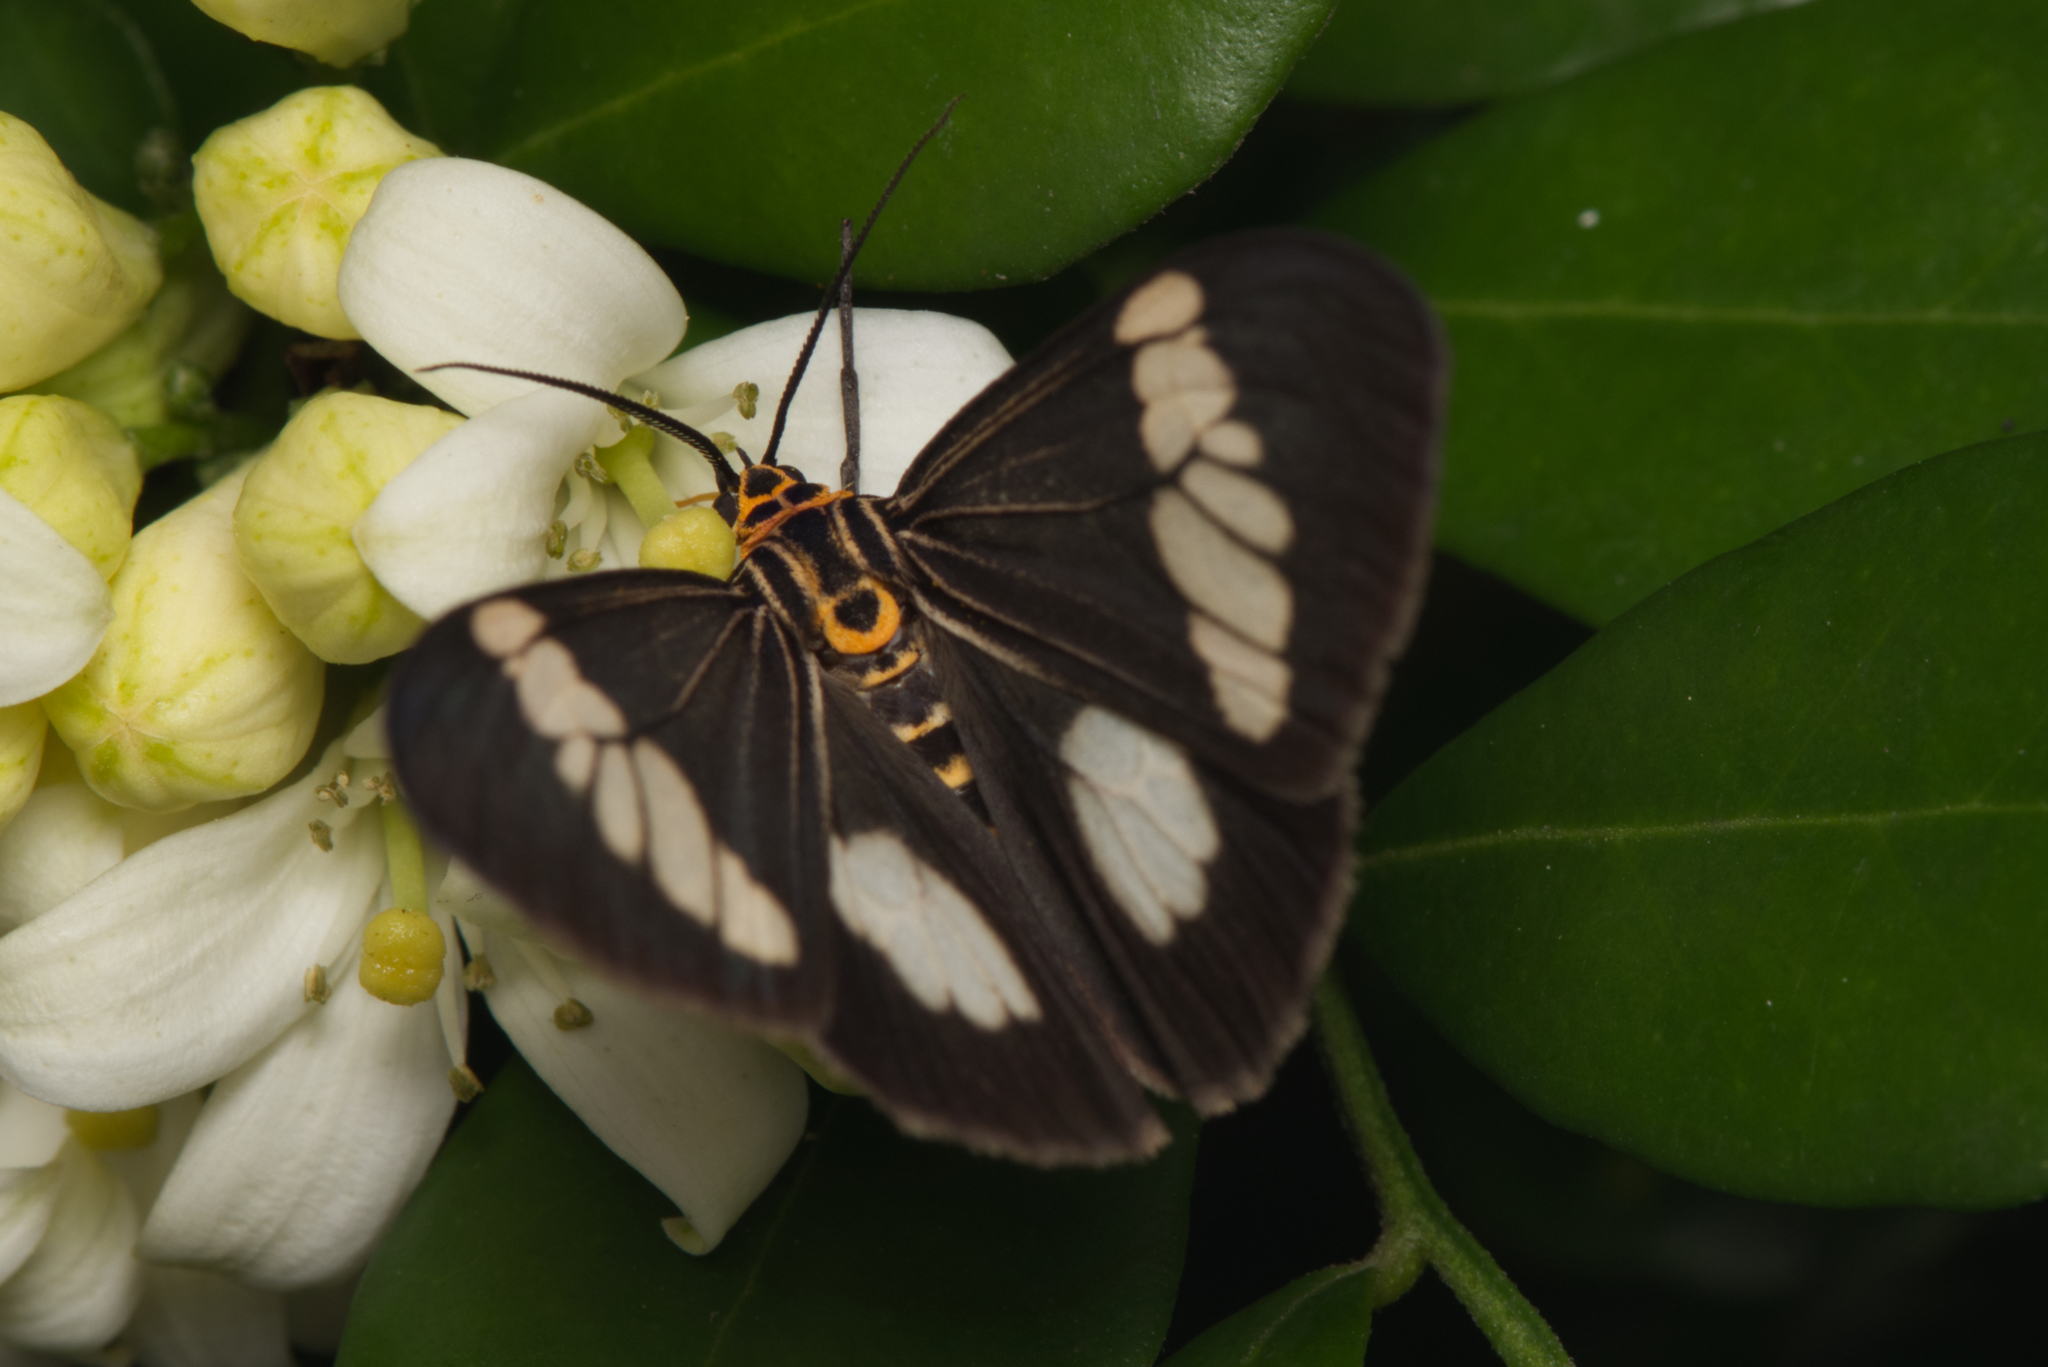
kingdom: Animalia
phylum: Arthropoda
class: Insecta
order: Lepidoptera
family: Erebidae
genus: Nyctemera
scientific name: Nyctemera baulus
